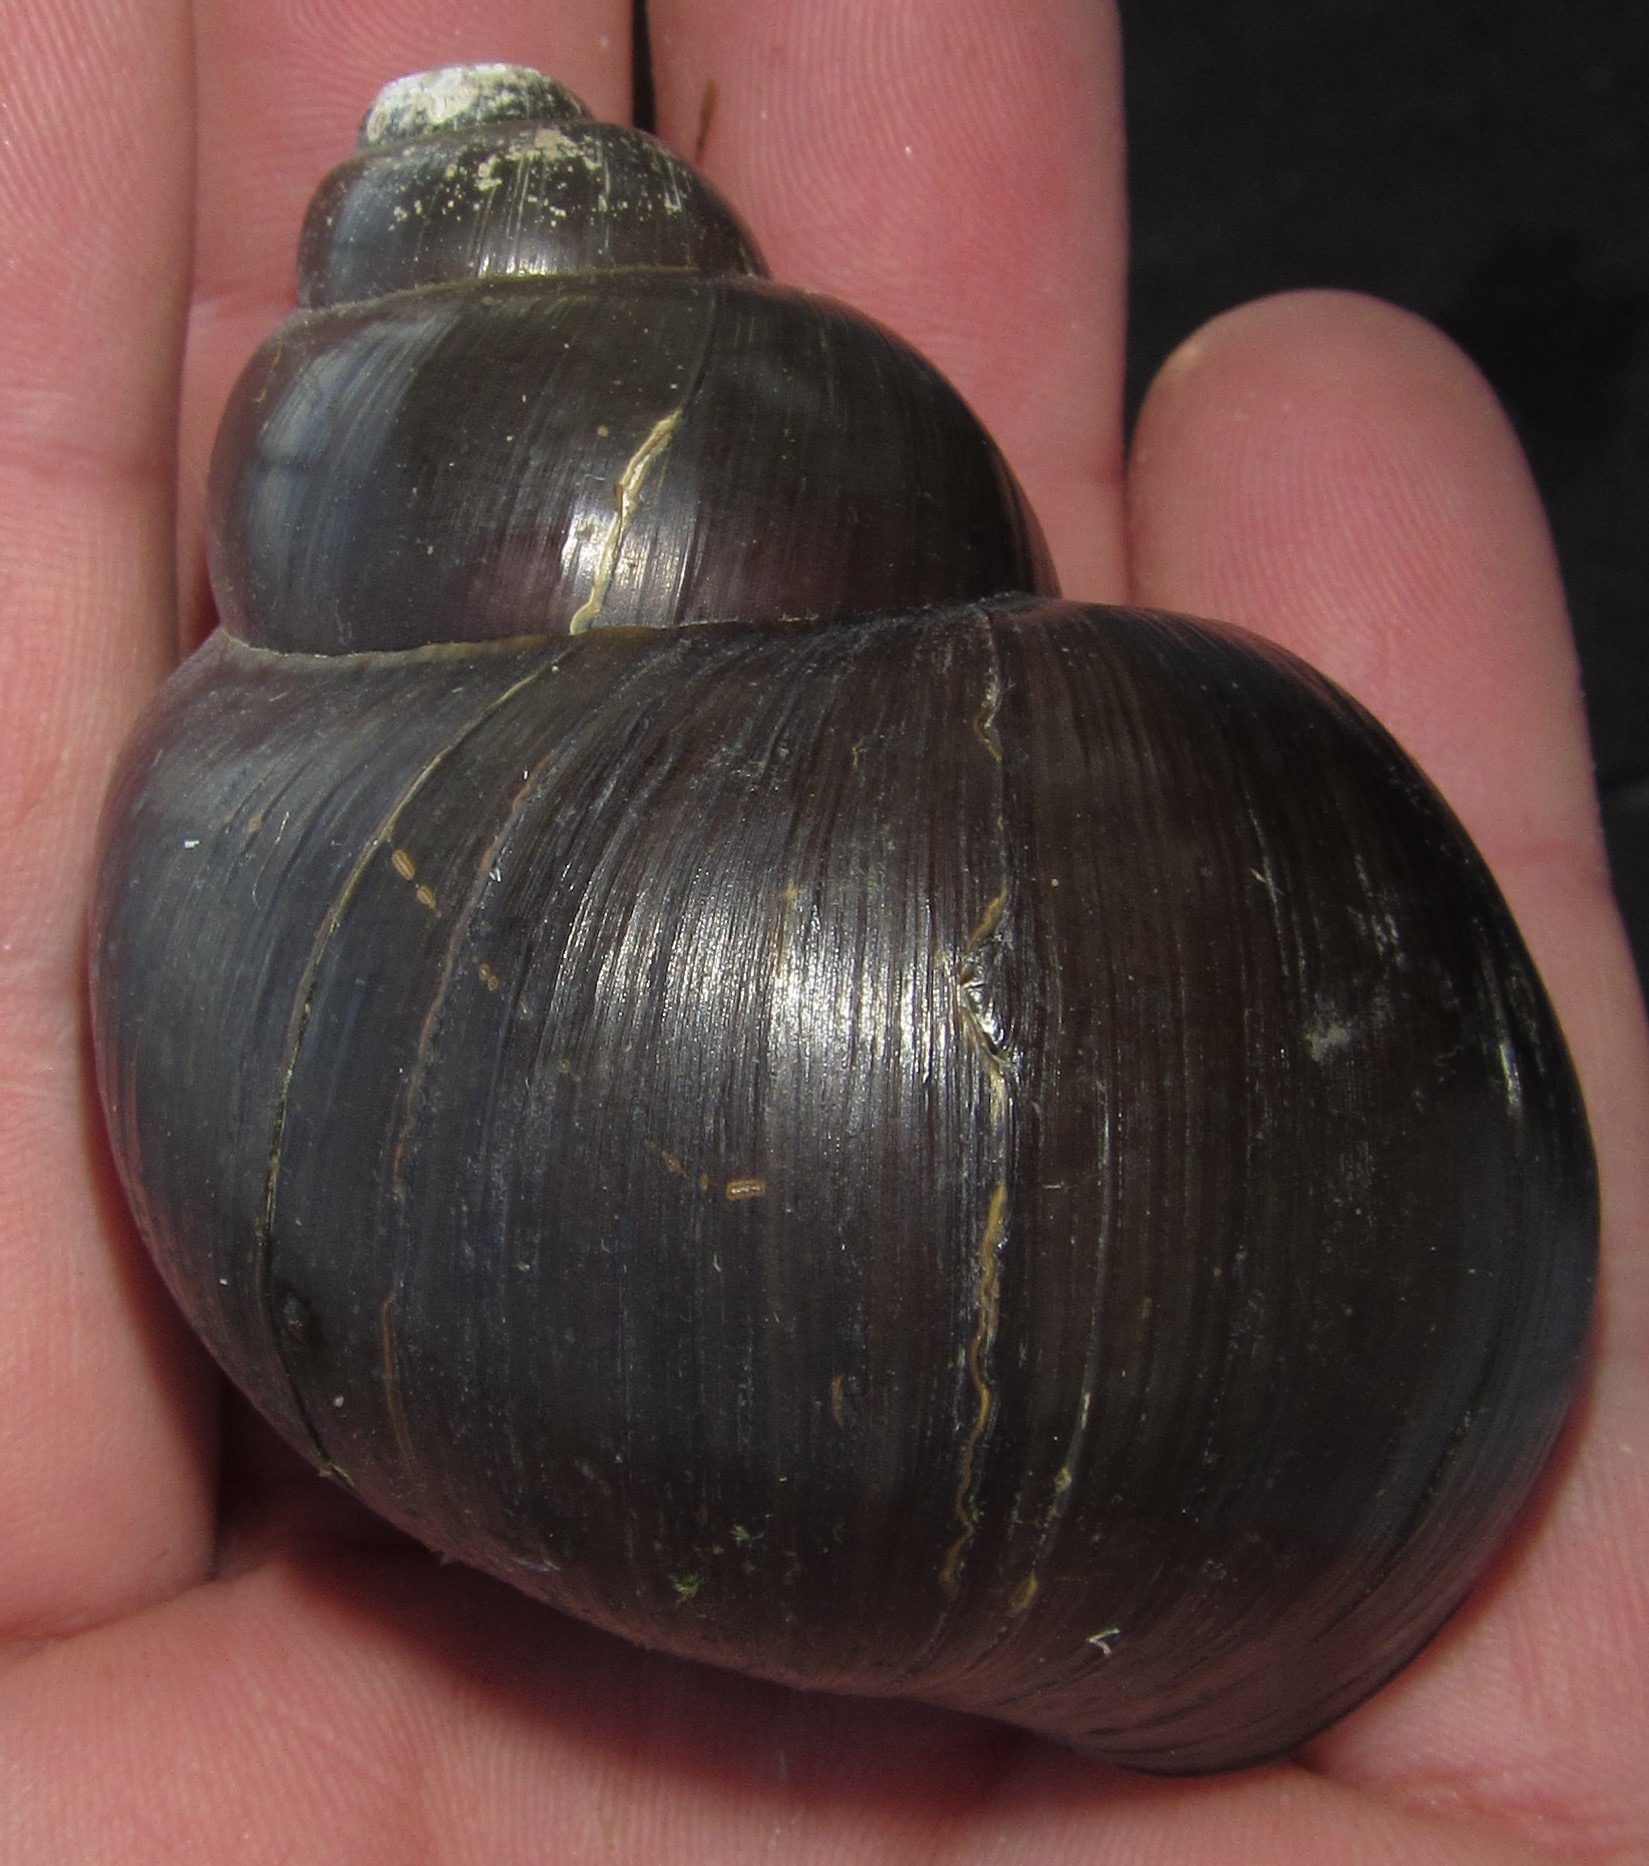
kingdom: Animalia
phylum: Mollusca
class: Gastropoda
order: Architaenioglossa
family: Ampullariidae
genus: Lanistes
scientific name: Lanistes ovum
